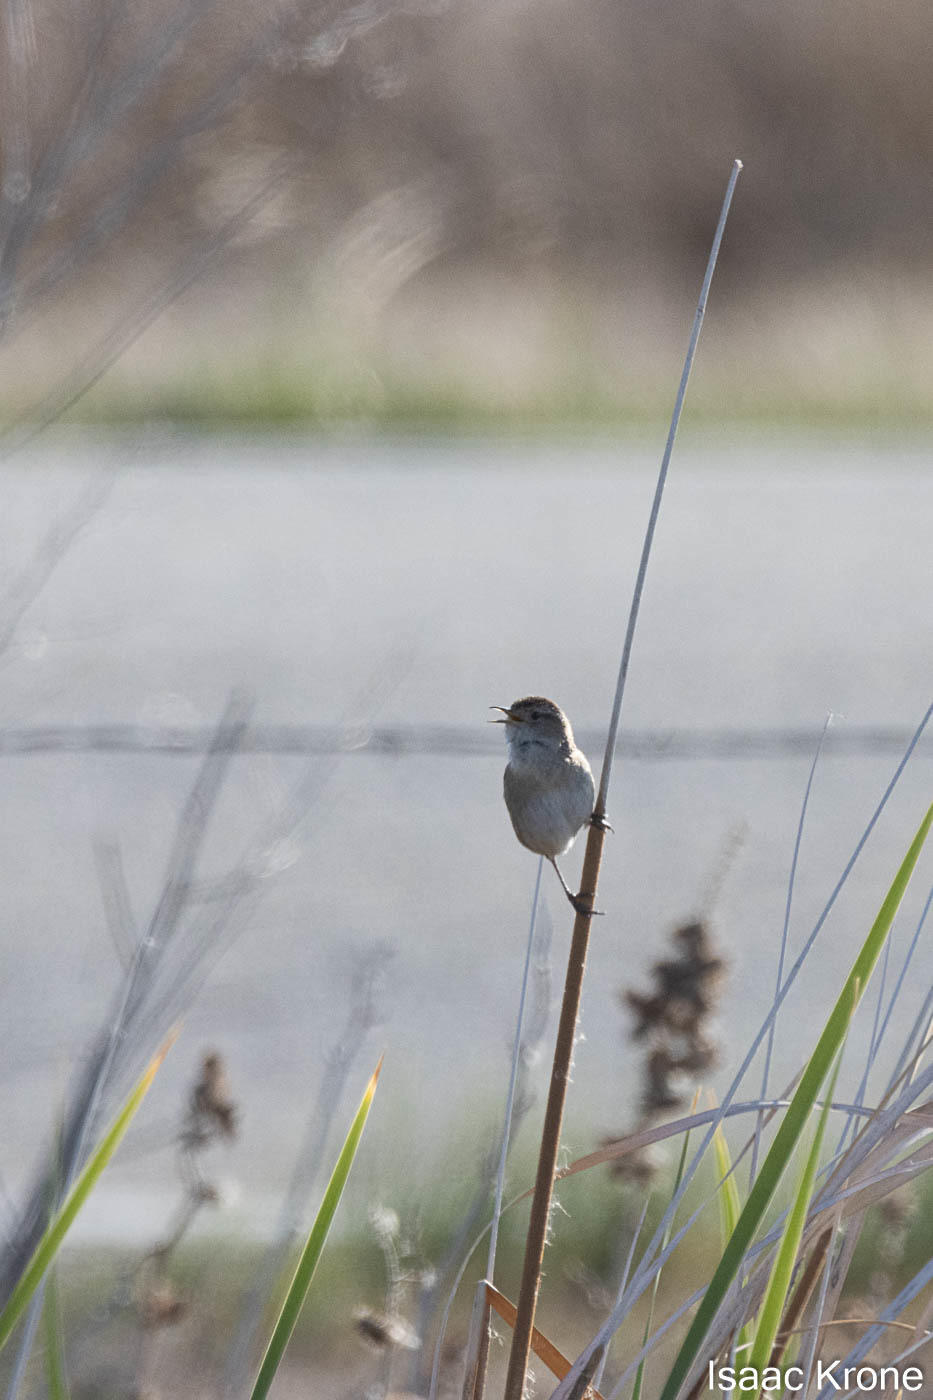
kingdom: Animalia
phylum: Chordata
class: Aves
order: Passeriformes
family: Troglodytidae
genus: Cistothorus
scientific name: Cistothorus palustris
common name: Marsh wren
